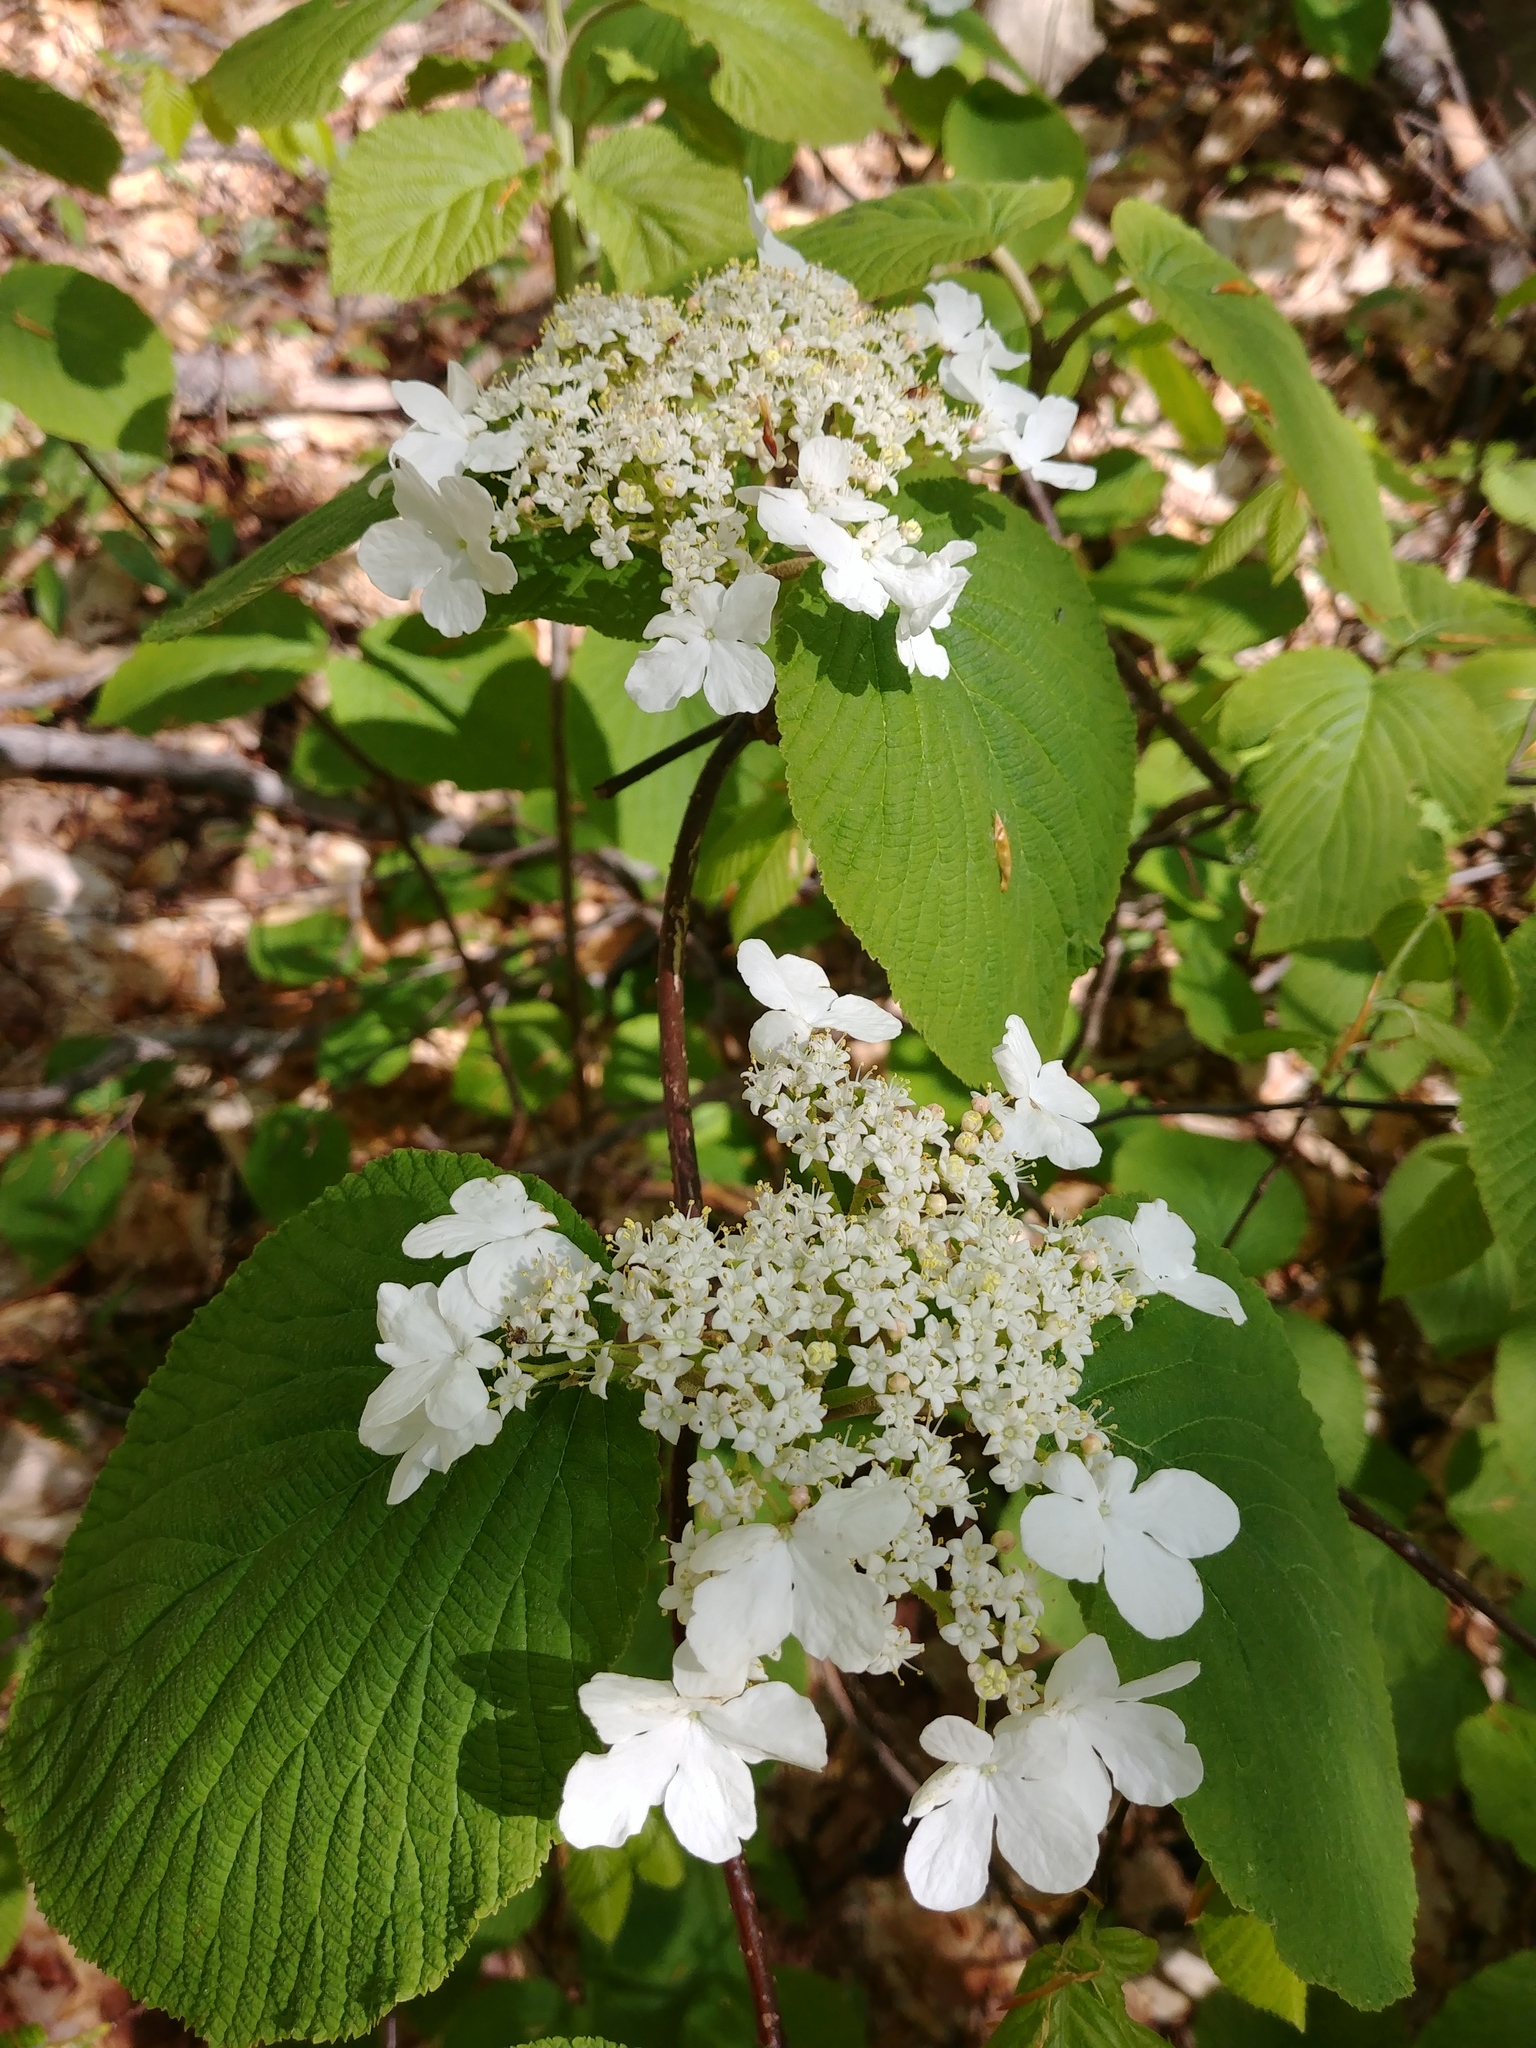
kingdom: Plantae
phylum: Tracheophyta
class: Magnoliopsida
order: Dipsacales
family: Viburnaceae
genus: Viburnum
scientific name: Viburnum lantanoides
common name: Hobblebush
